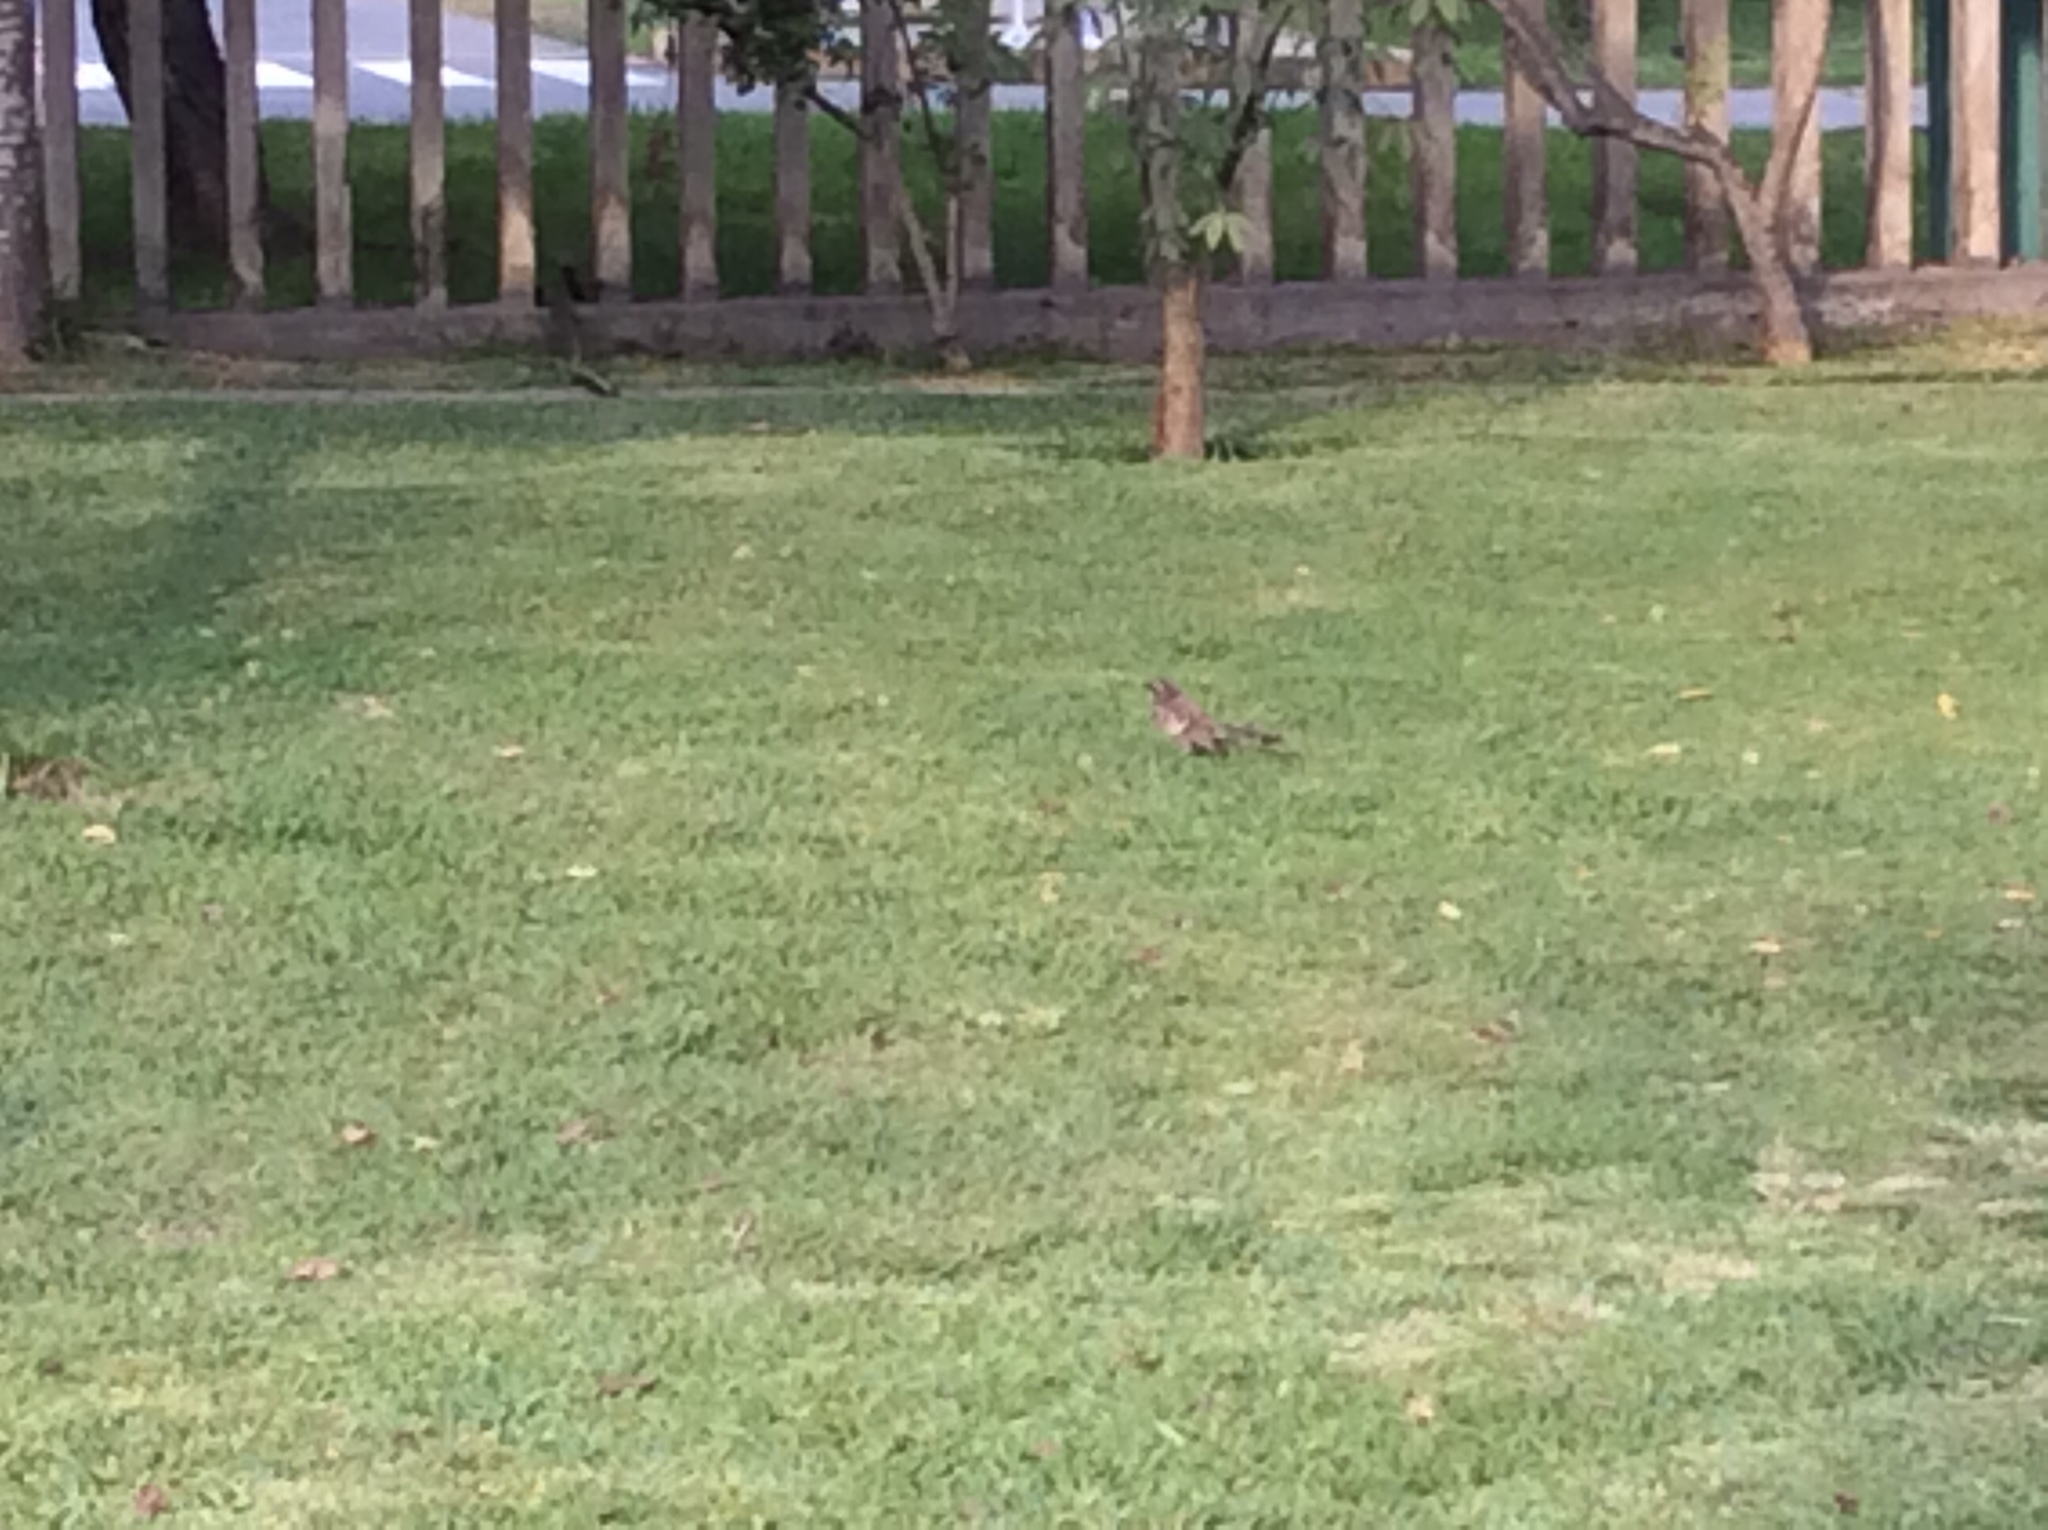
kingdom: Animalia
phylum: Chordata
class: Aves
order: Passeriformes
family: Mimidae
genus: Mimus
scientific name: Mimus longicaudatus
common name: Long-tailed mockingbird
